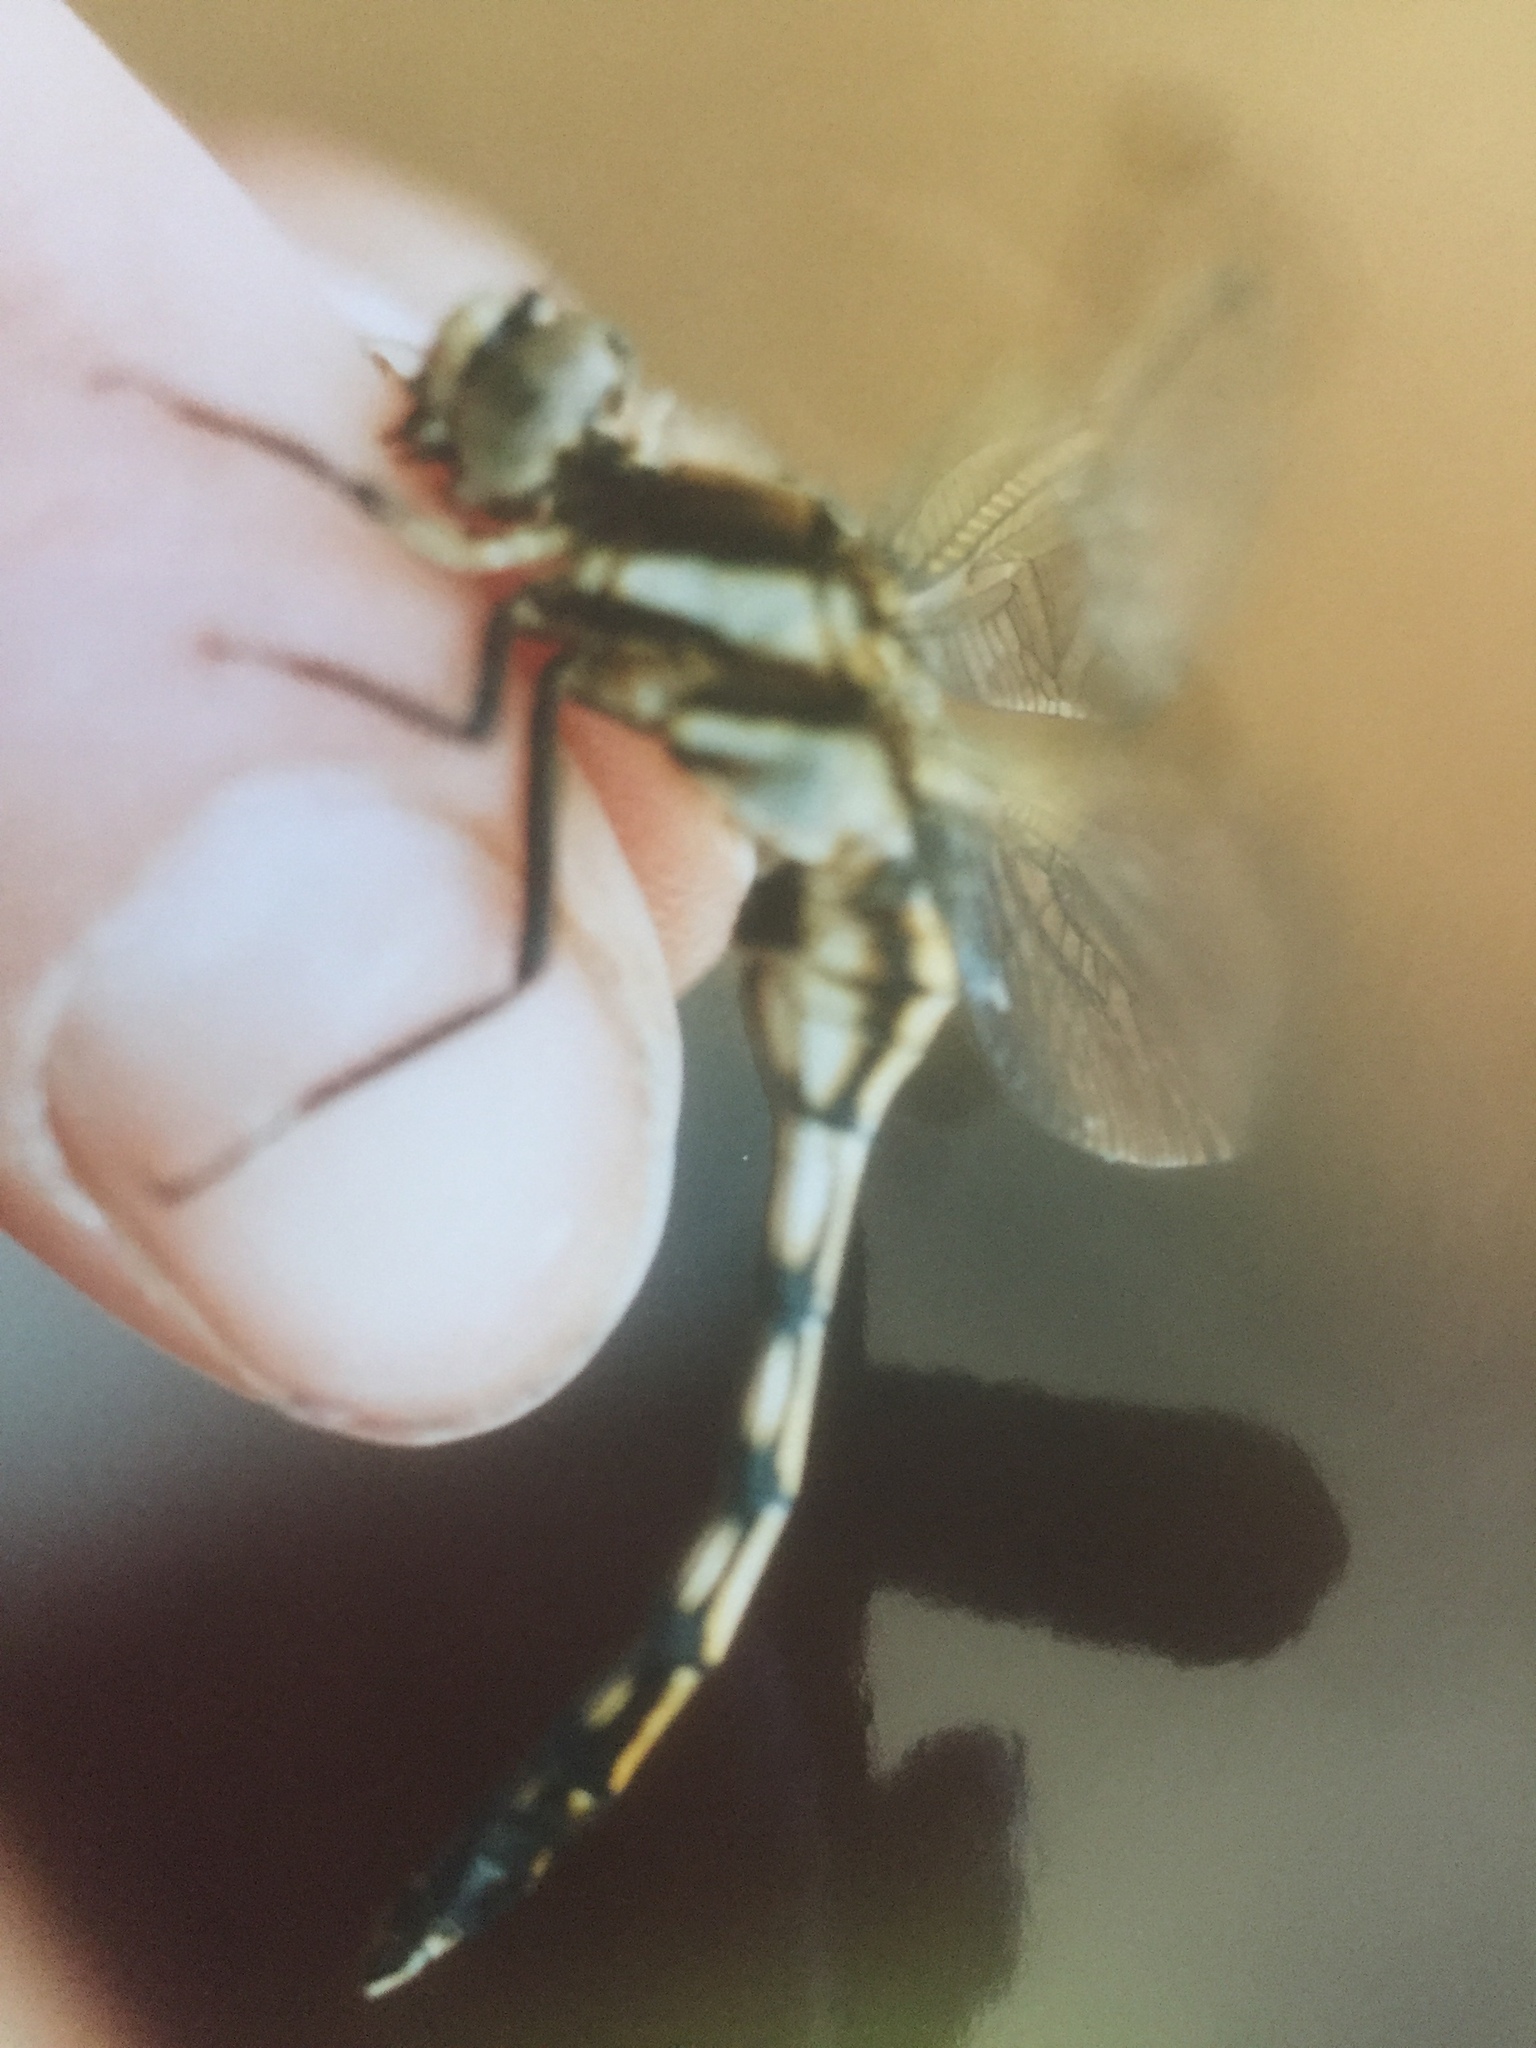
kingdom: Animalia
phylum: Arthropoda
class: Insecta
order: Odonata
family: Libellulidae
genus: Orthetrum
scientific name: Orthetrum albistylum
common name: White-tailed skimmer
